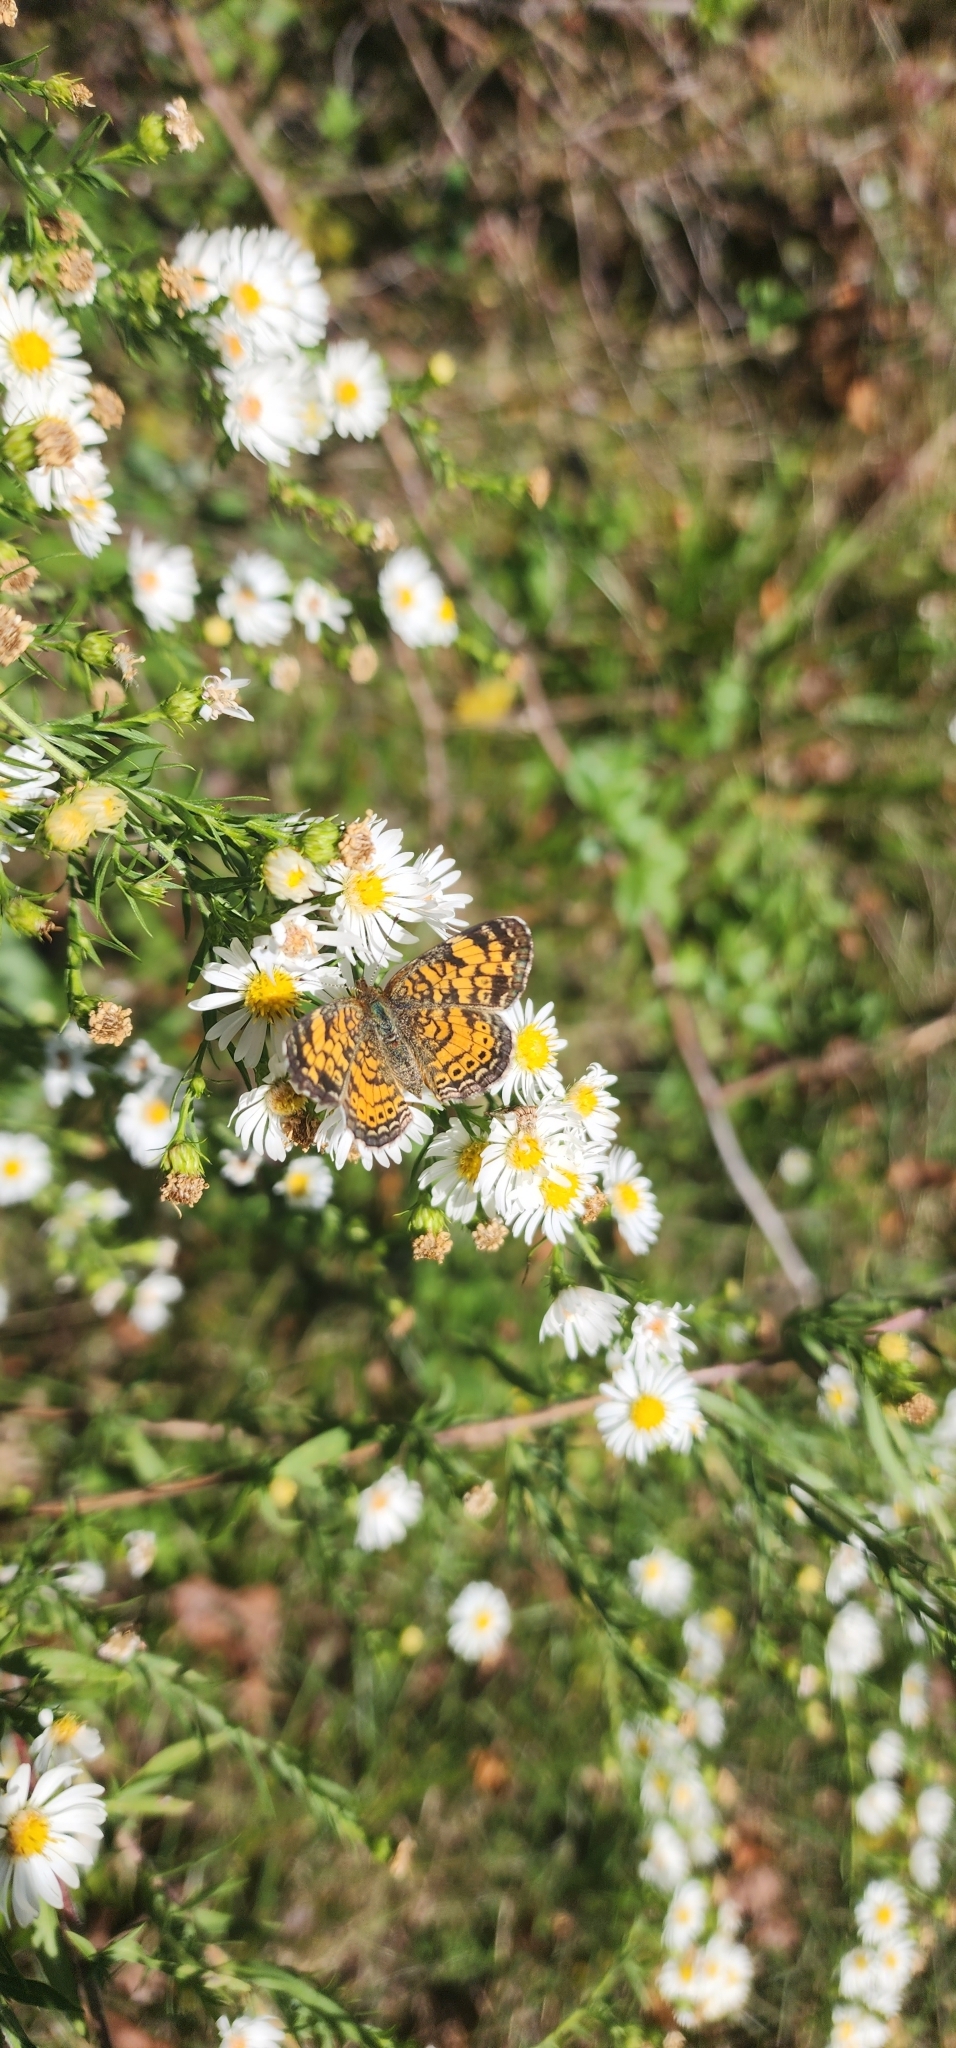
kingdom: Animalia
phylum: Arthropoda
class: Insecta
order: Lepidoptera
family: Nymphalidae
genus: Phyciodes
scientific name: Phyciodes tharos
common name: Pearl crescent
